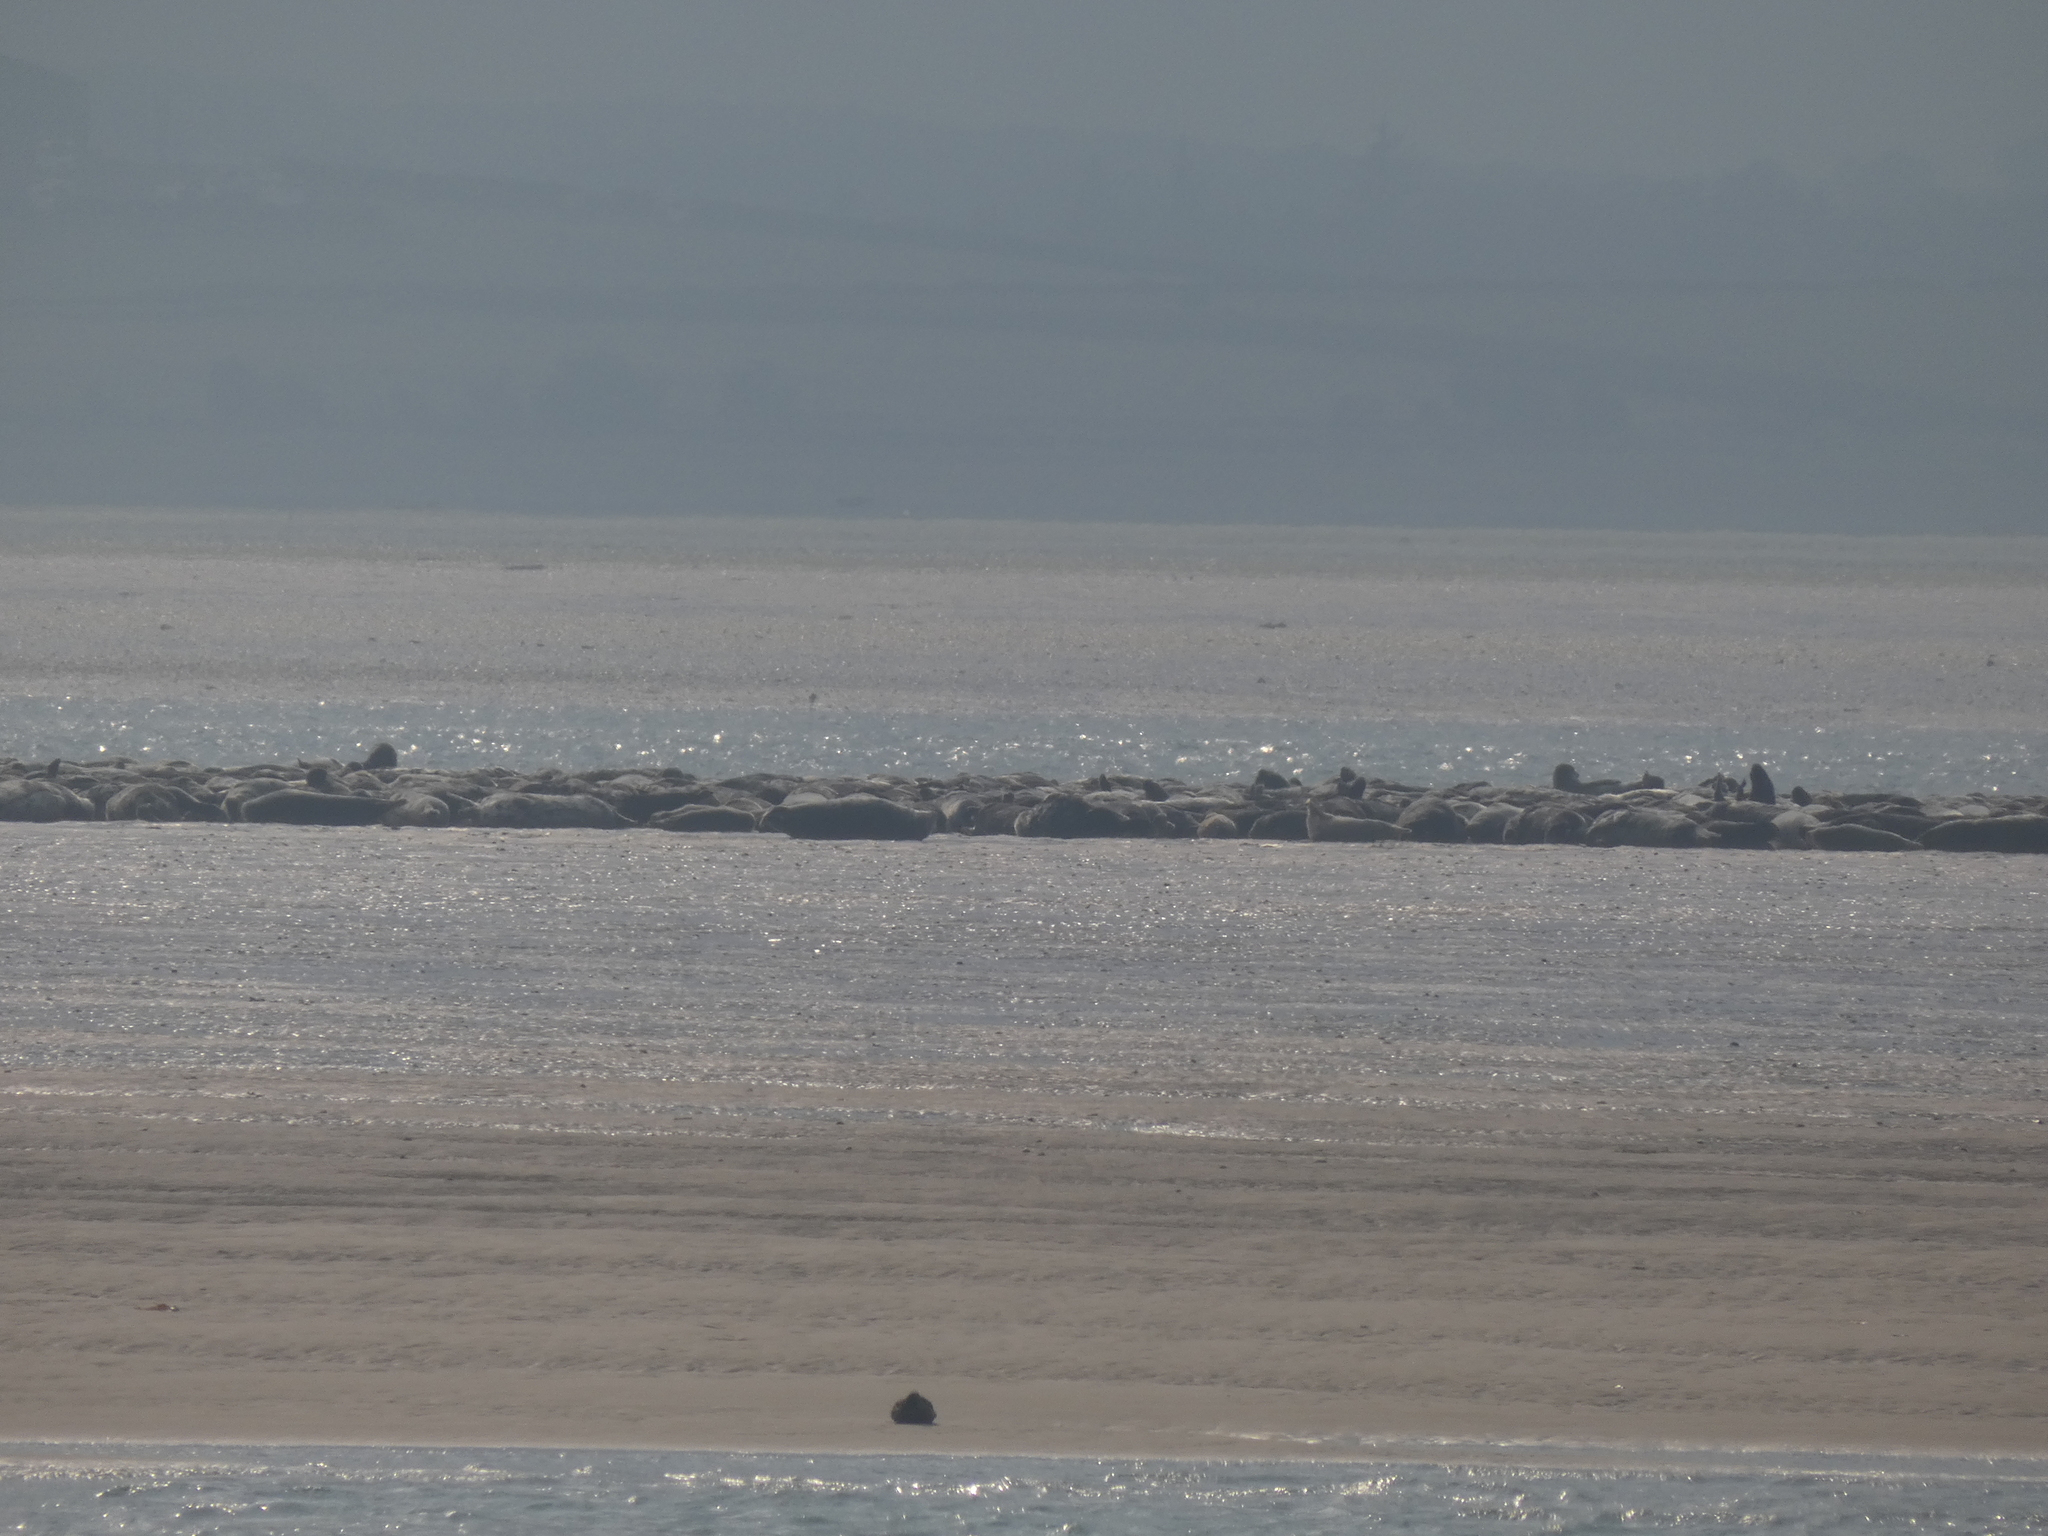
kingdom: Animalia
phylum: Chordata
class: Mammalia
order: Carnivora
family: Phocidae
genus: Halichoerus
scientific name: Halichoerus grypus
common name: Grey seal
